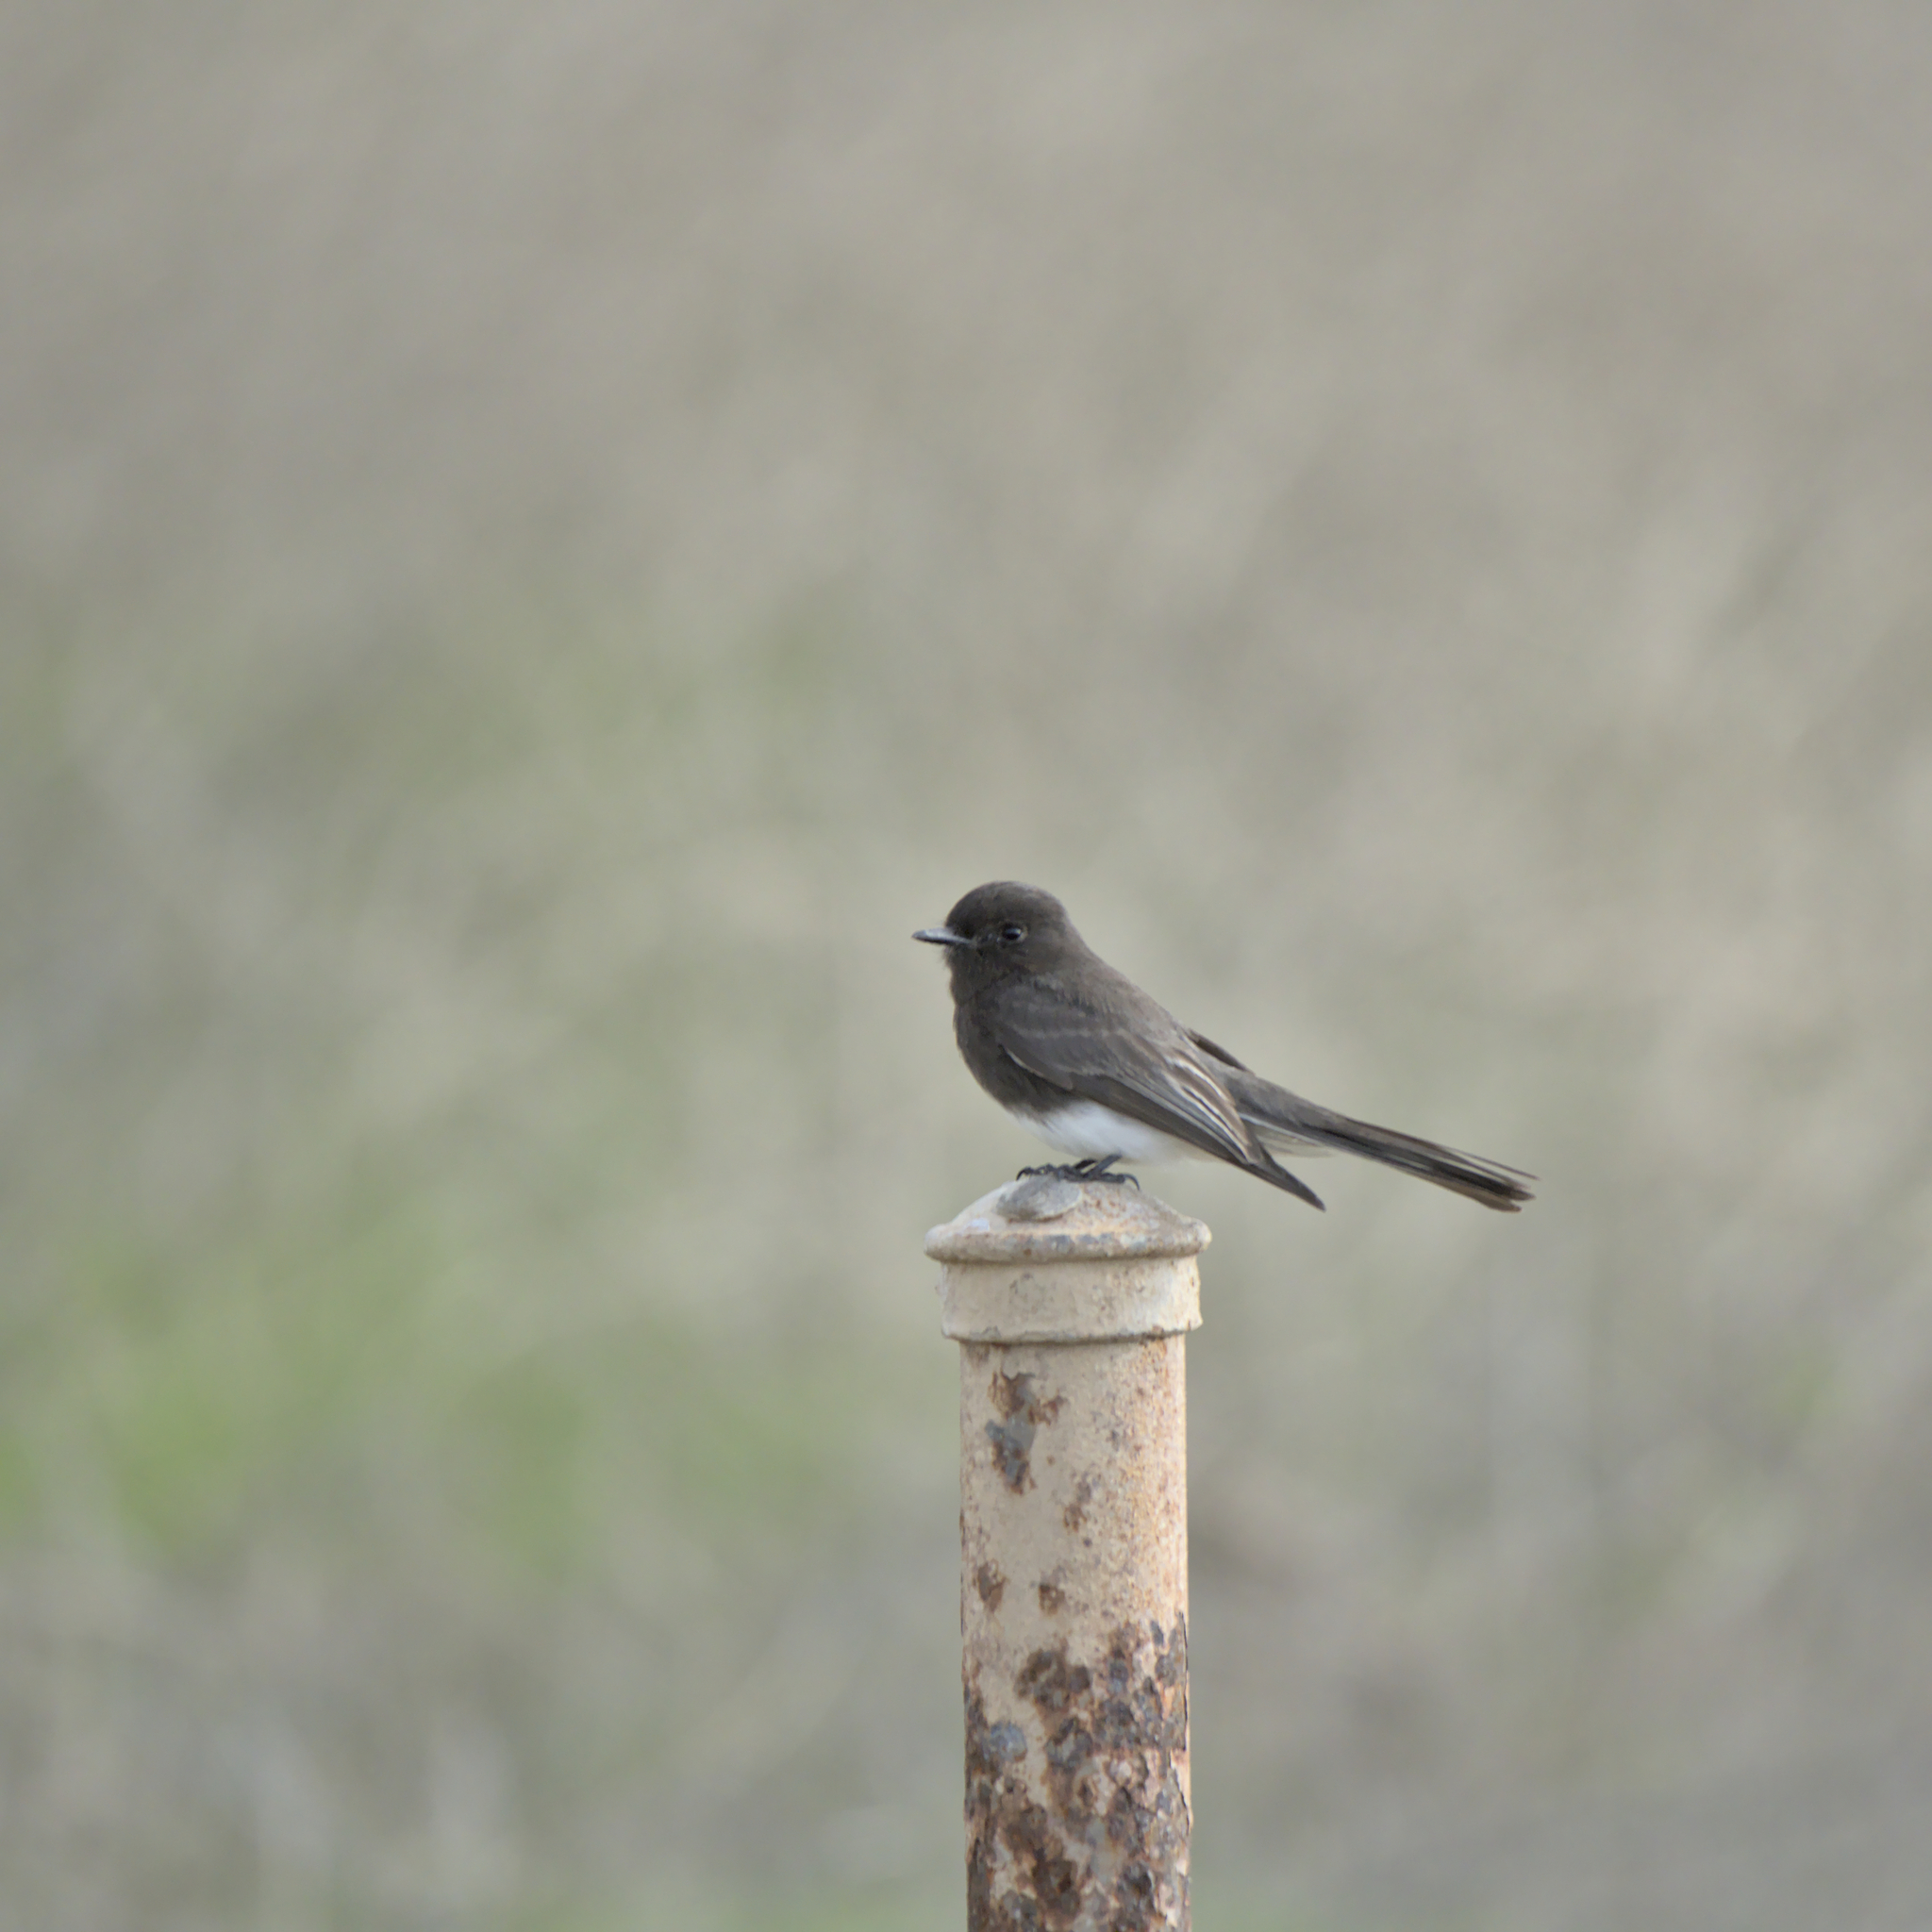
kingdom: Animalia
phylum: Chordata
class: Aves
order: Passeriformes
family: Tyrannidae
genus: Sayornis
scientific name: Sayornis nigricans
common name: Black phoebe
